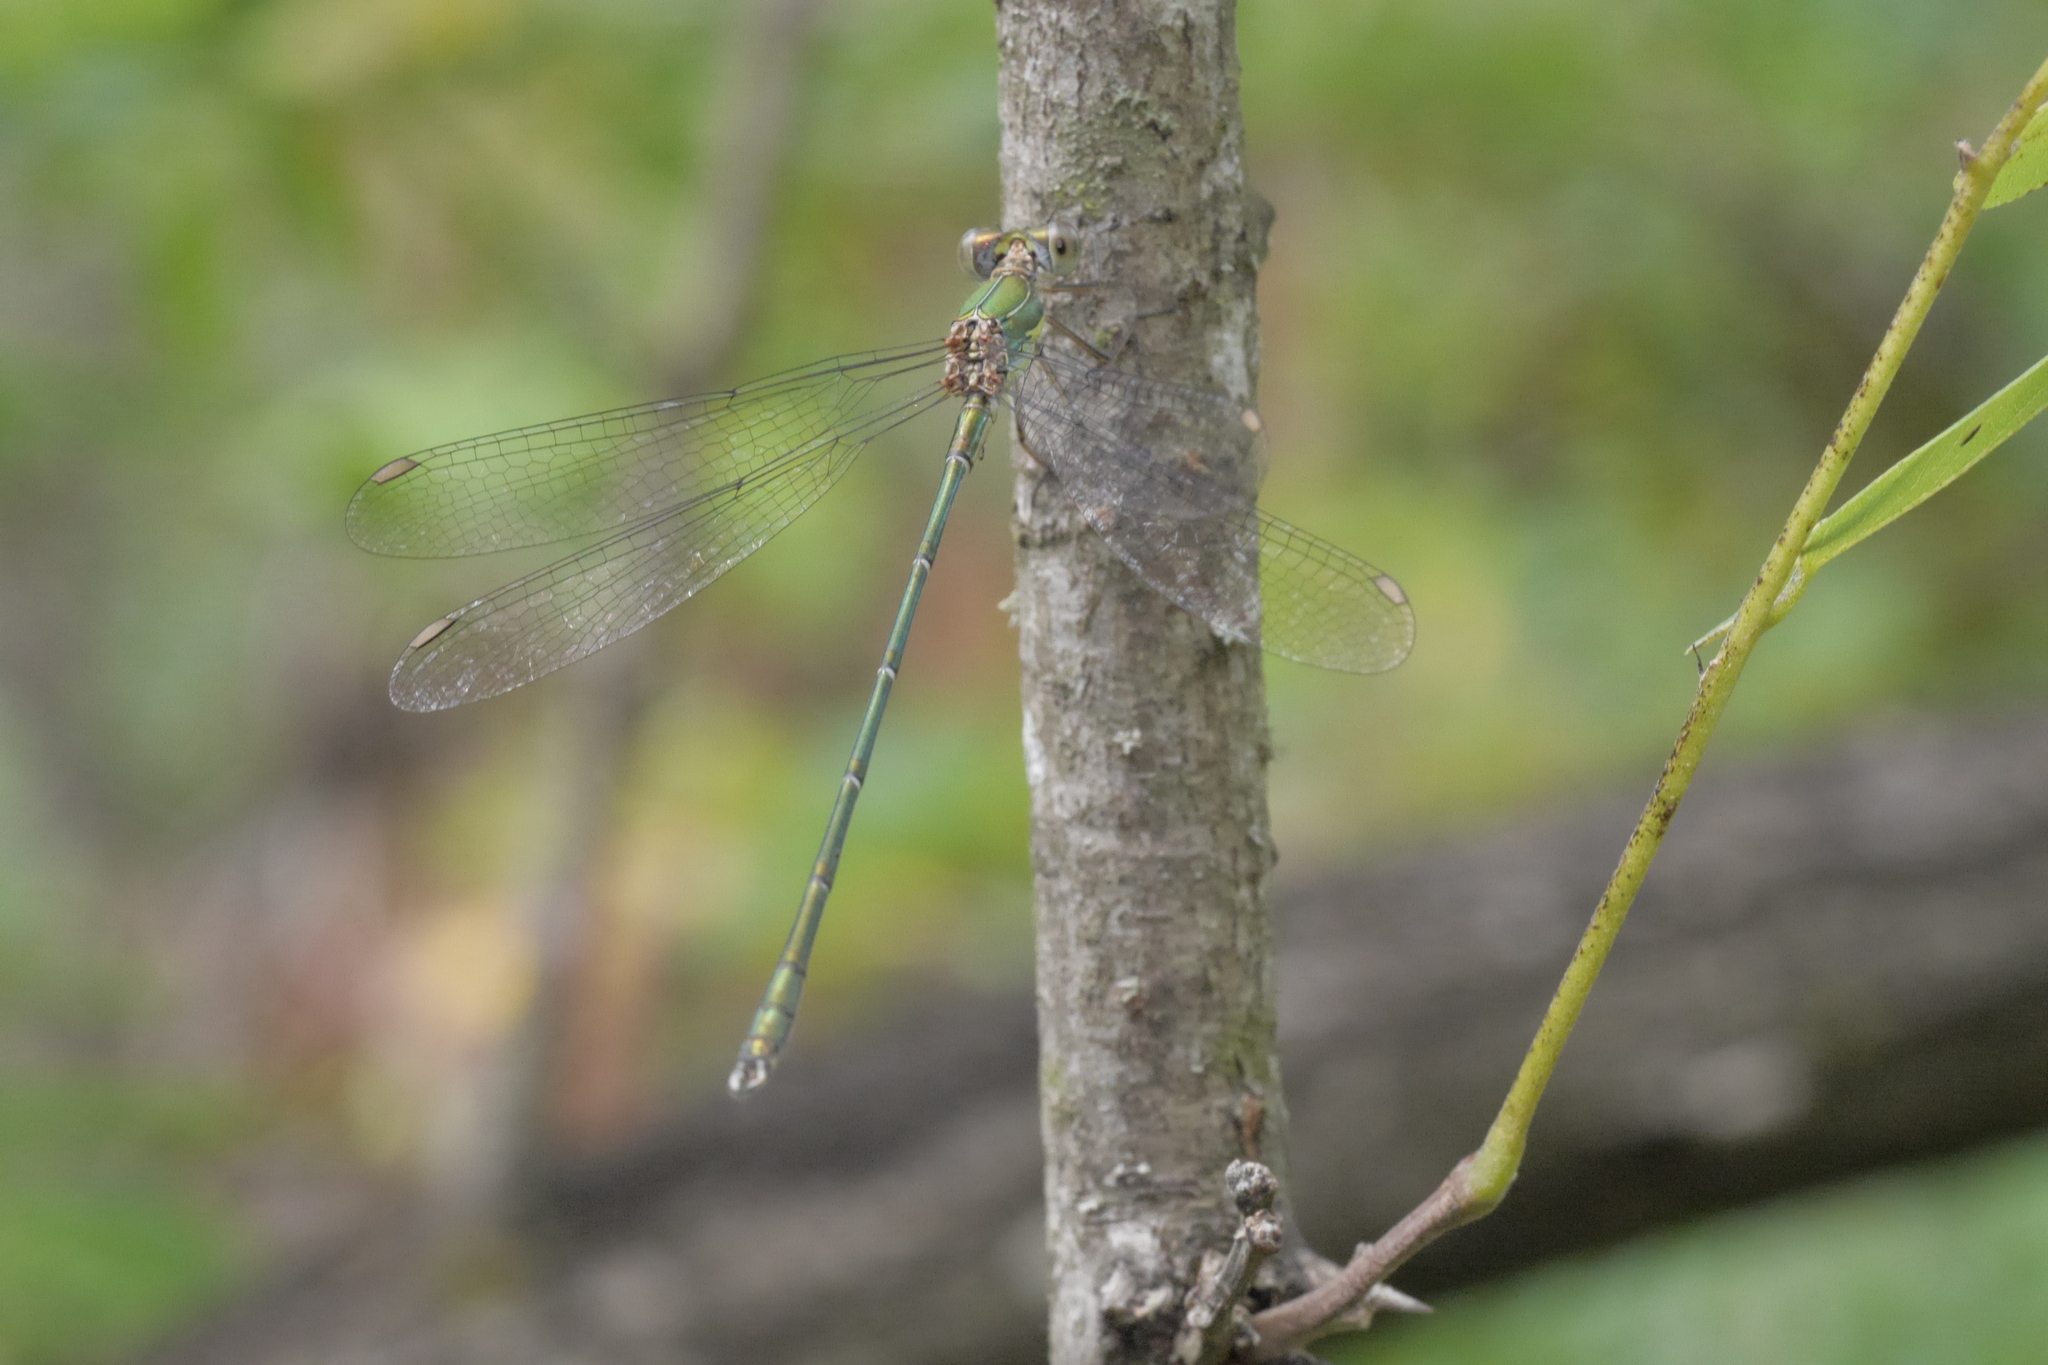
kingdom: Animalia
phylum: Arthropoda
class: Insecta
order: Odonata
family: Lestidae
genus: Chalcolestes
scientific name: Chalcolestes viridis
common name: Green emerald damselfly
